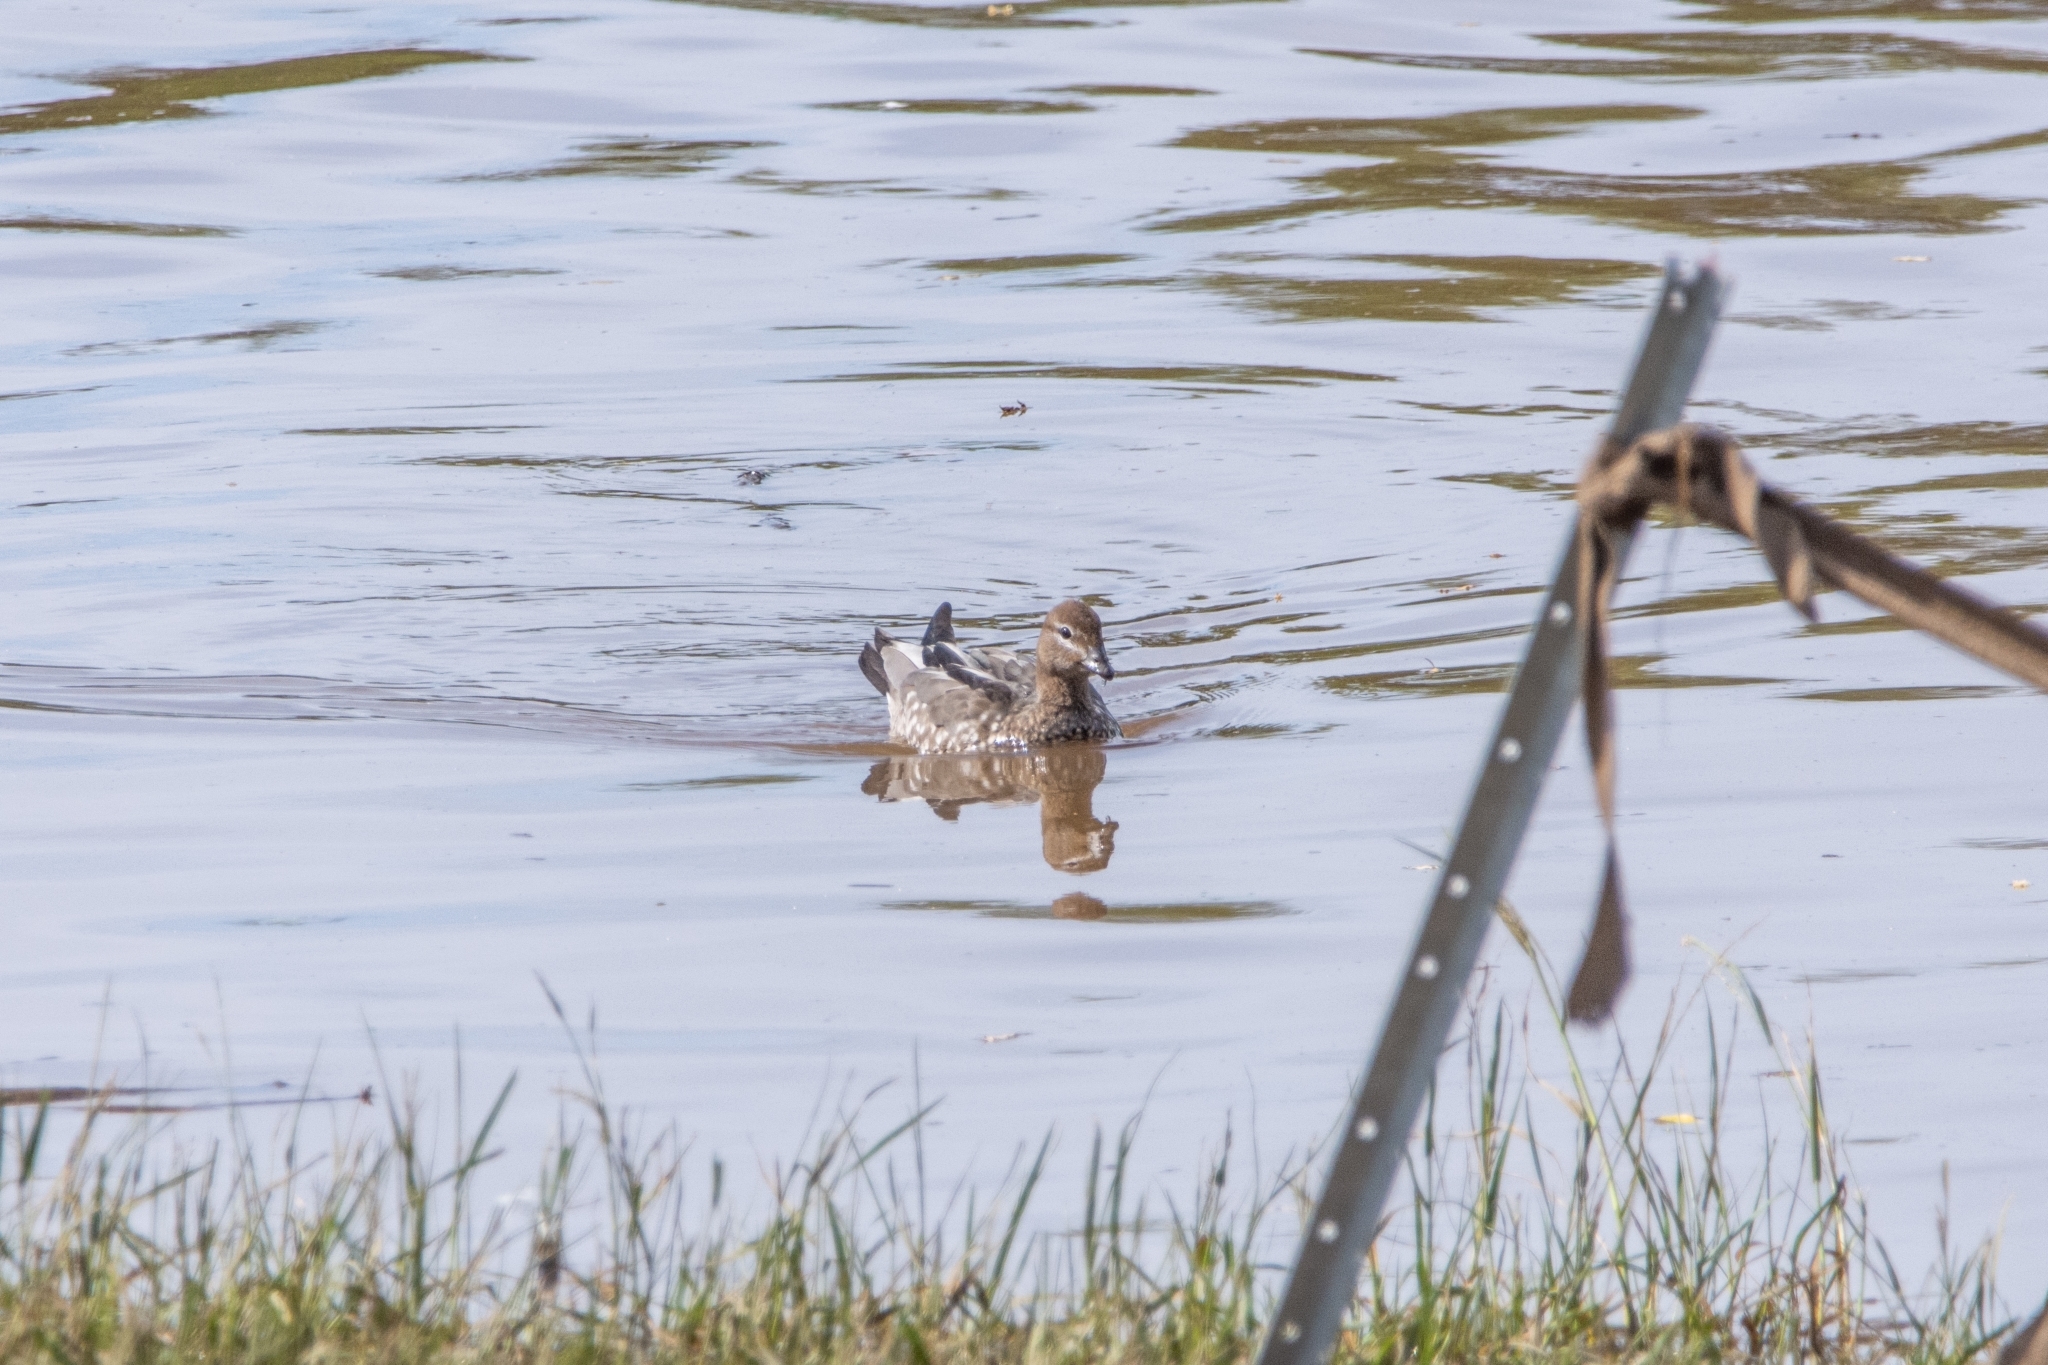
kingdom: Animalia
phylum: Chordata
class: Aves
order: Anseriformes
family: Anatidae
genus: Chenonetta
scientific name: Chenonetta jubata
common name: Maned duck
